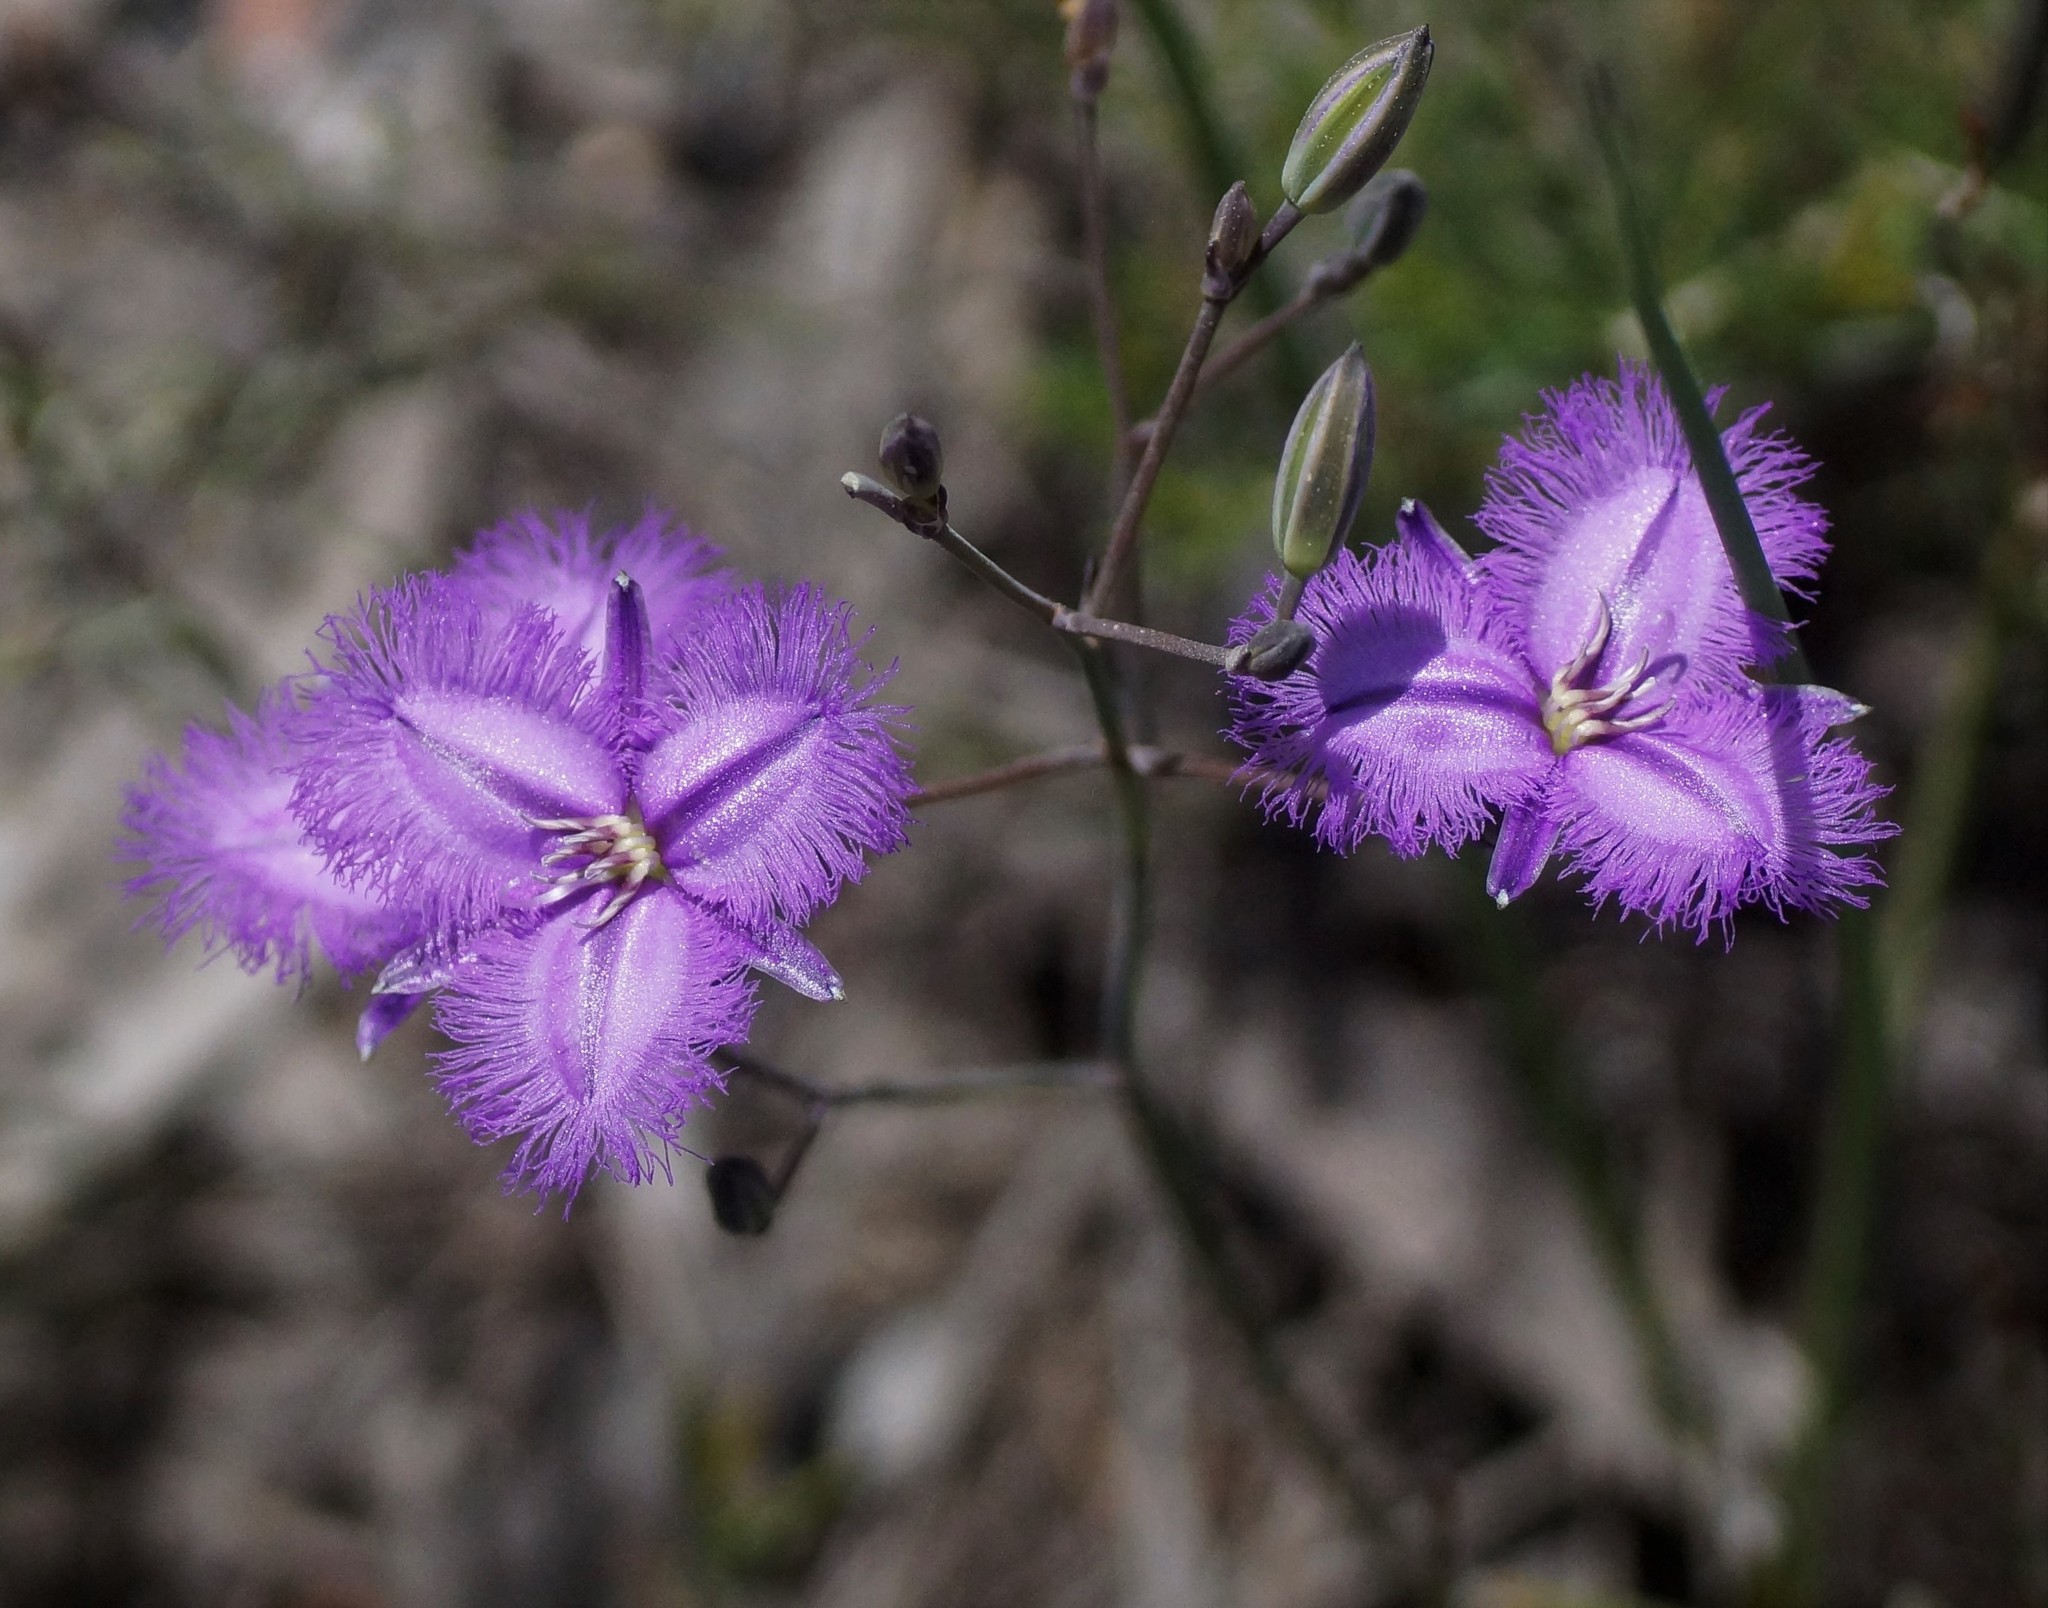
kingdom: Plantae
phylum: Tracheophyta
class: Liliopsida
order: Asparagales
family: Asparagaceae
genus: Thysanotus
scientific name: Thysanotus tuberosus
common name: Common fringed-lily
